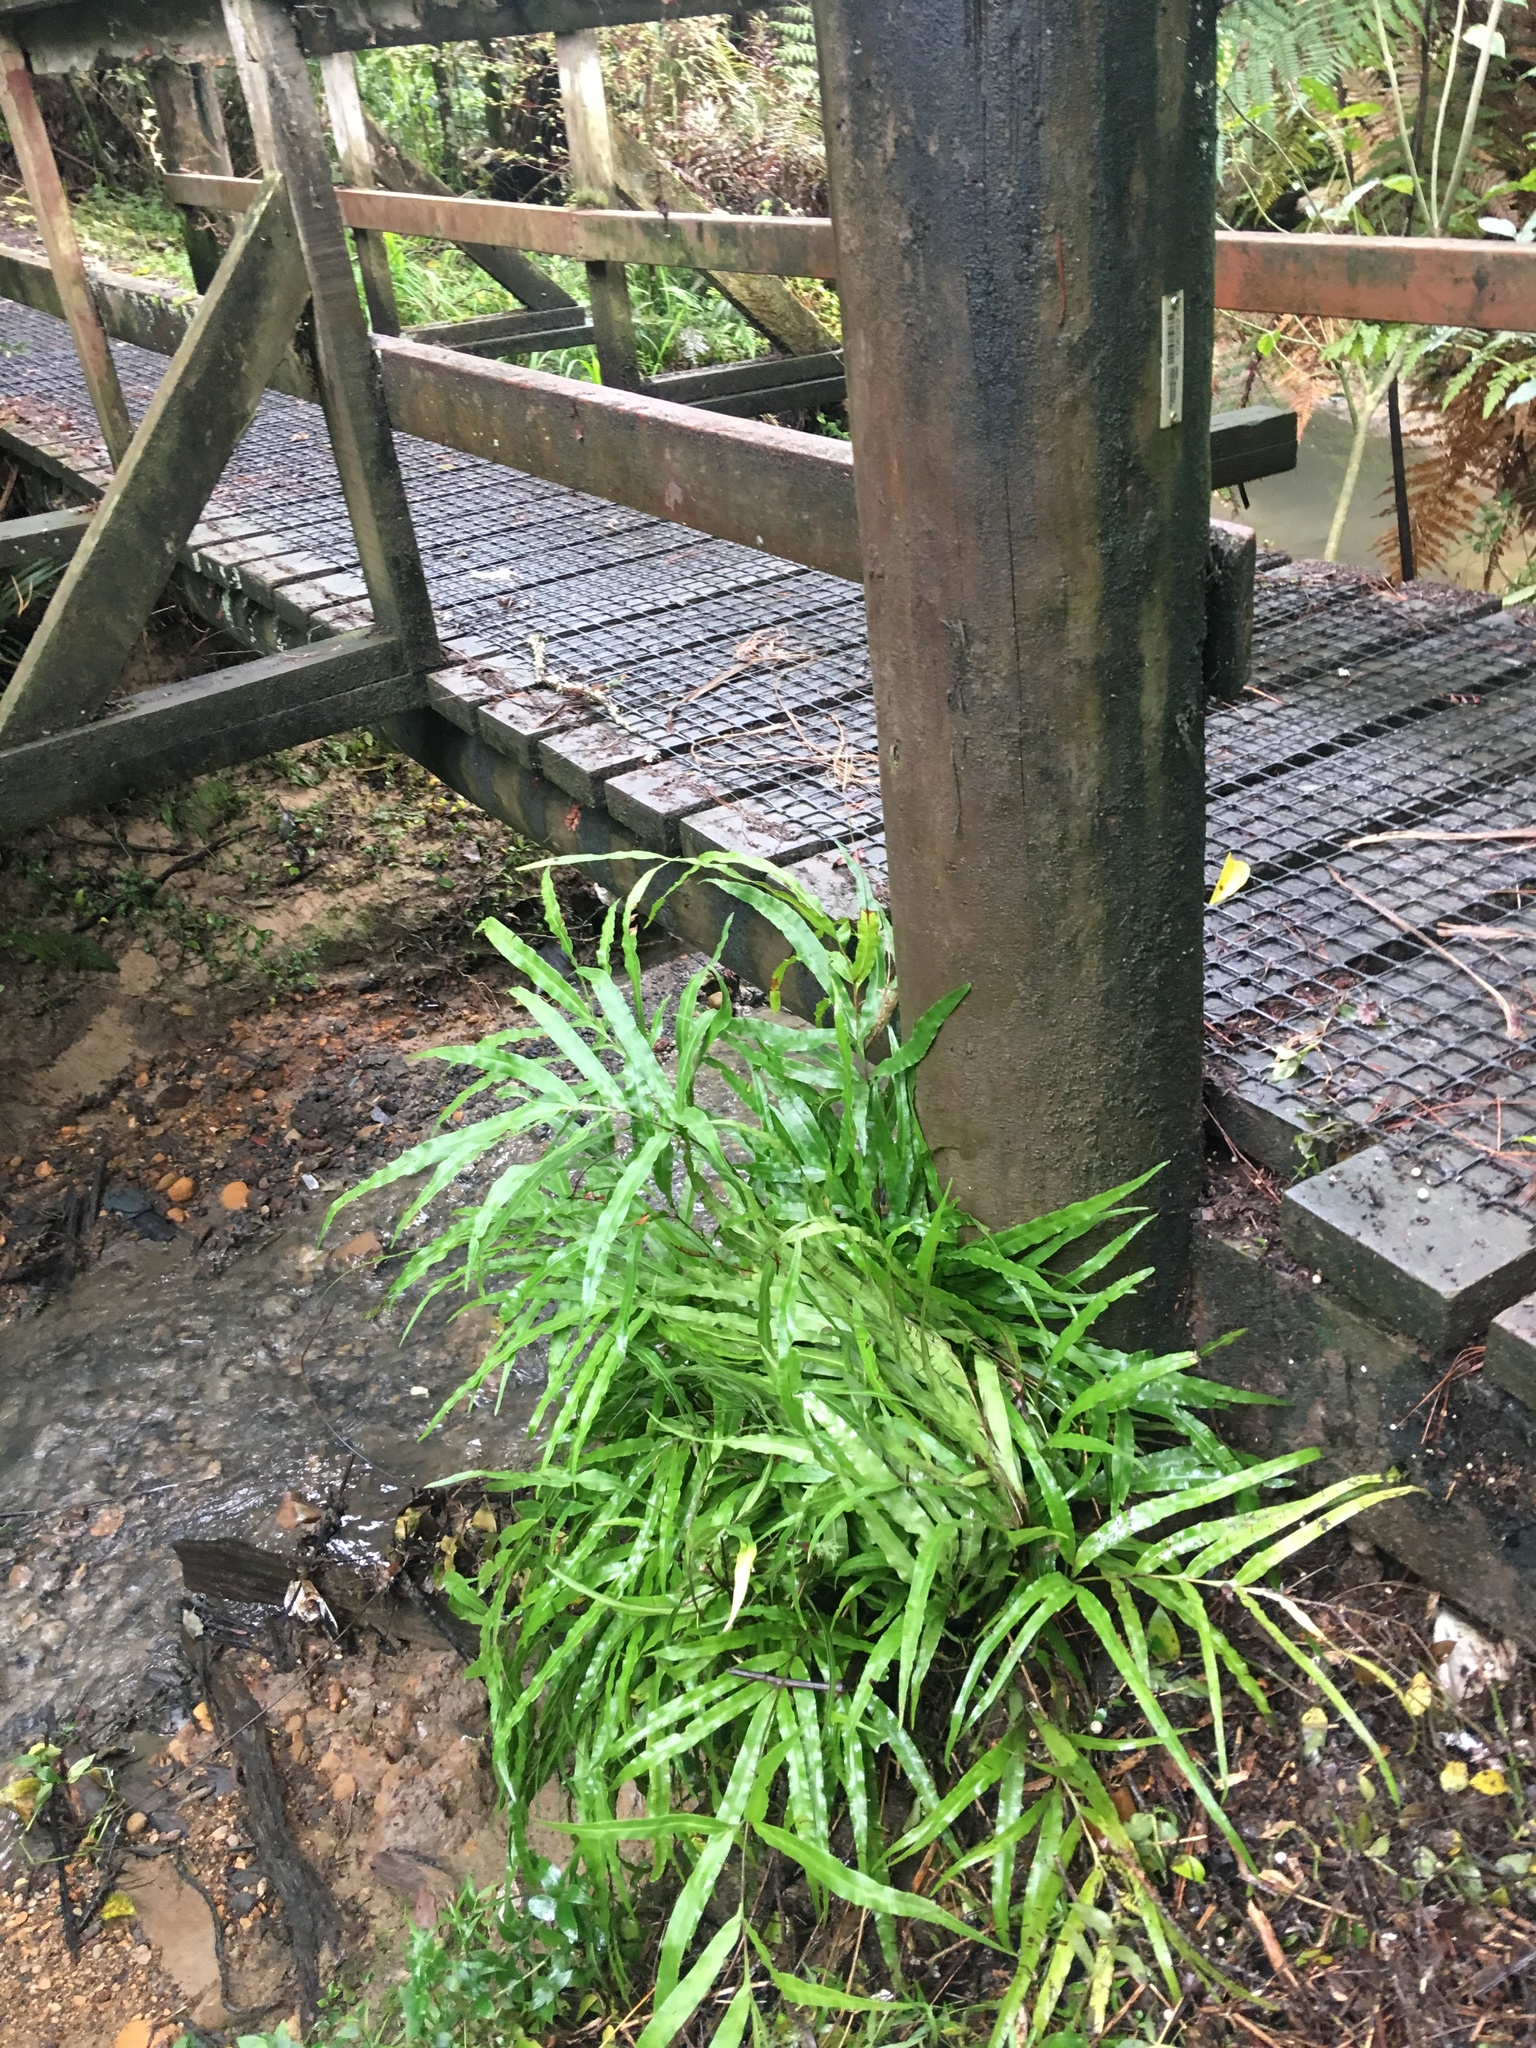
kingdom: Plantae
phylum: Tracheophyta
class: Polypodiopsida
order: Polypodiales
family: Pteridaceae
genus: Pteris
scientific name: Pteris cretica
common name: Ribbon fern
